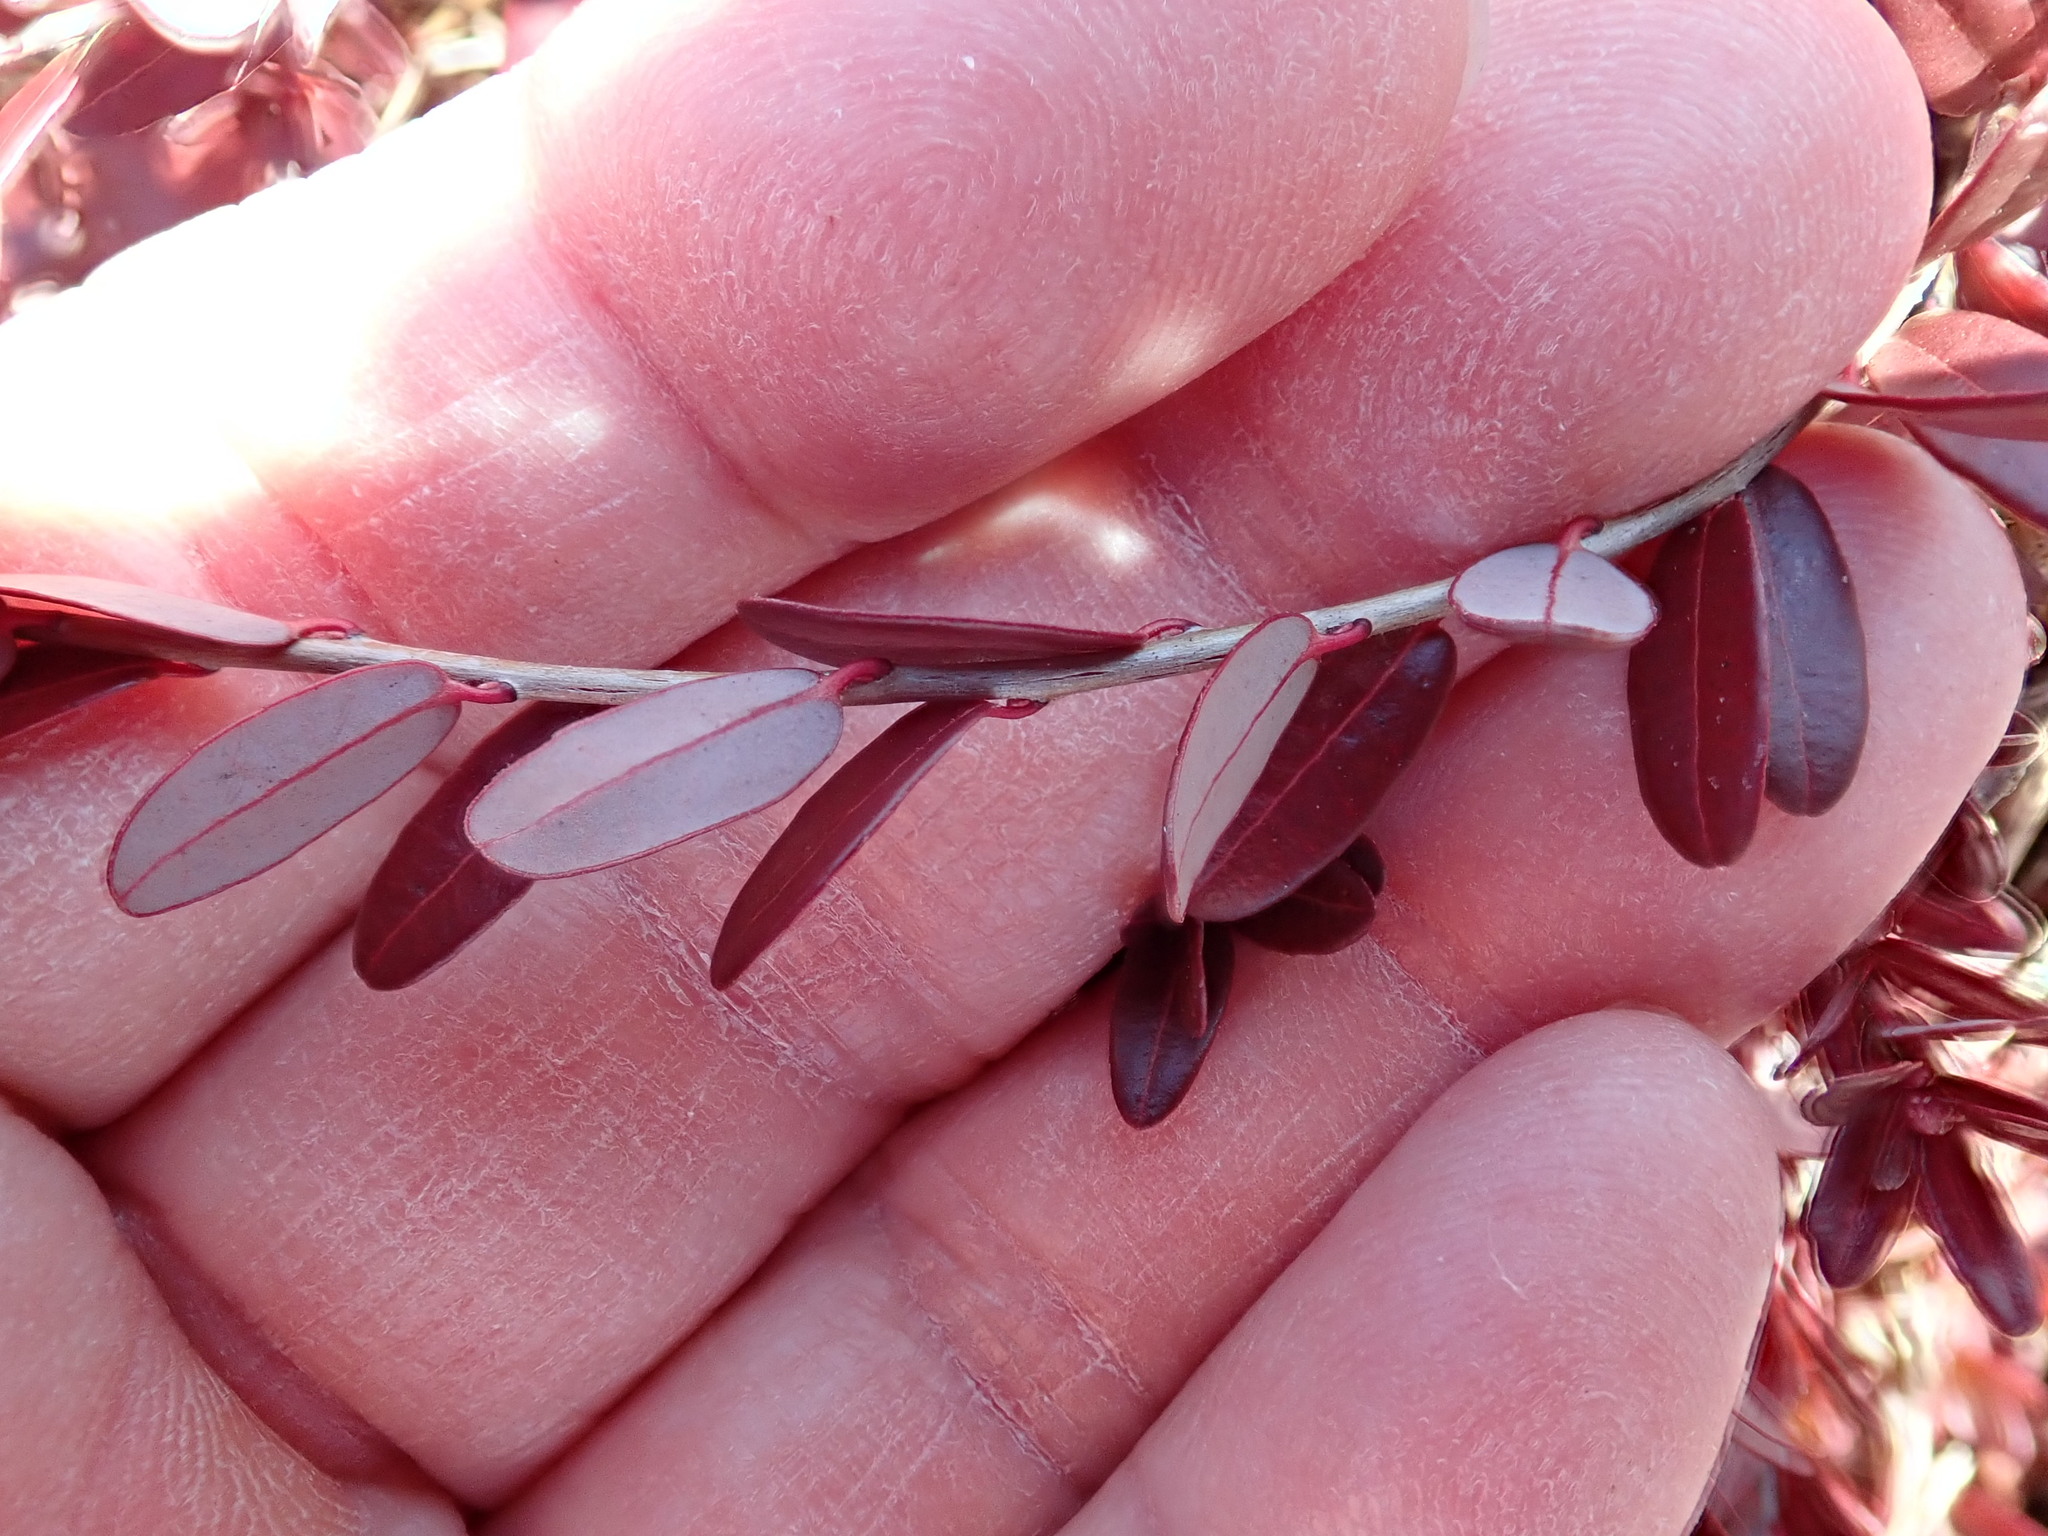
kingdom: Plantae
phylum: Tracheophyta
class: Magnoliopsida
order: Ericales
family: Ericaceae
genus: Vaccinium
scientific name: Vaccinium macrocarpon
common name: American cranberry
